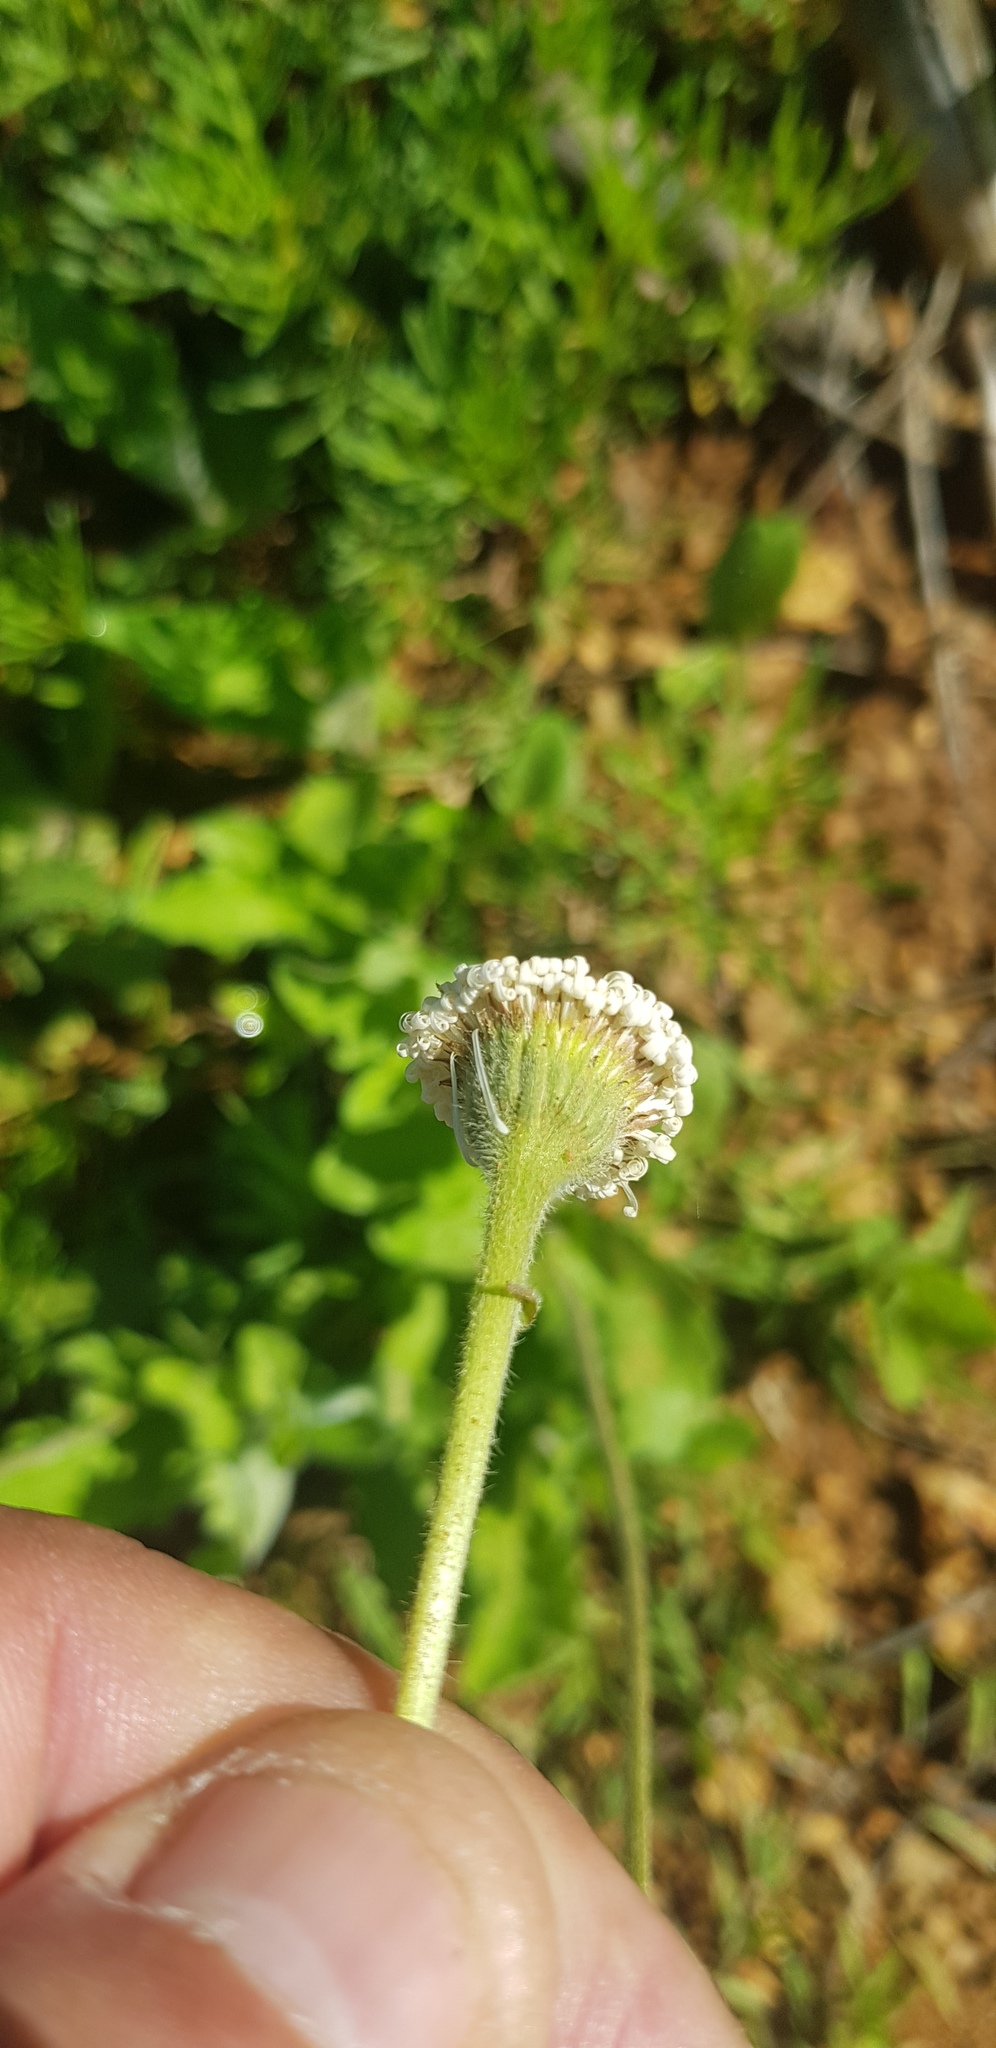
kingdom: Plantae
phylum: Tracheophyta
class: Magnoliopsida
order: Asterales
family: Asteraceae
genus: Erigeron
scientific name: Erigeron longipes
